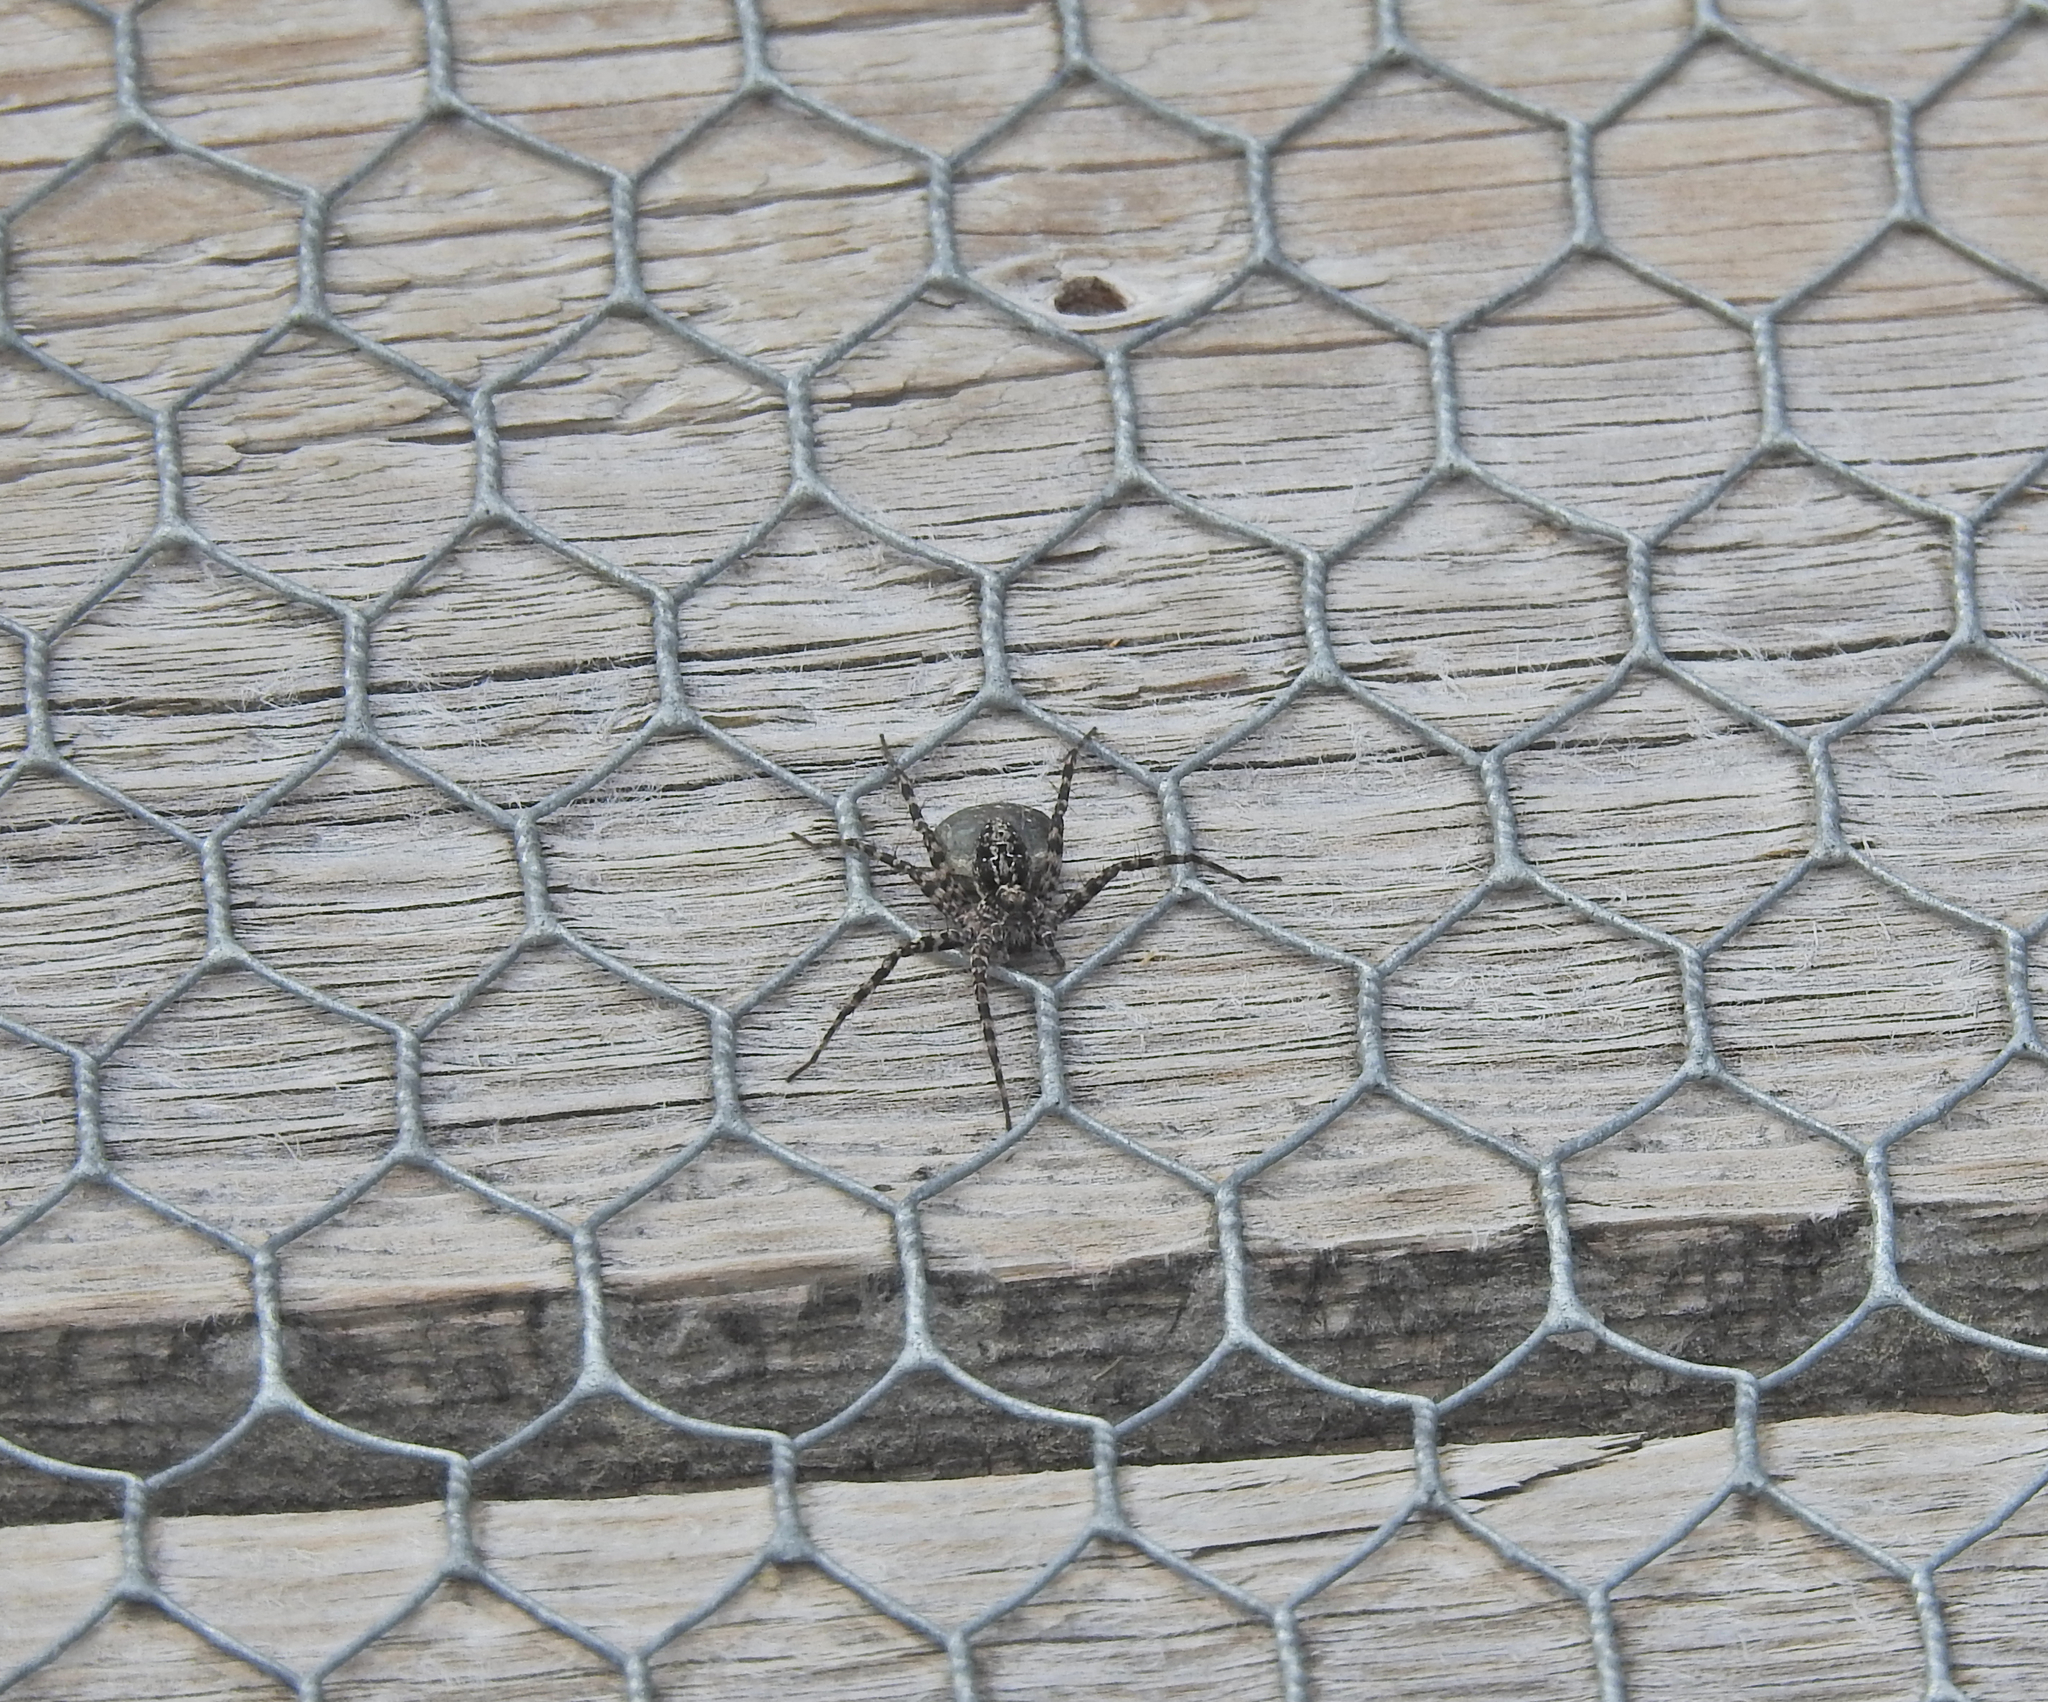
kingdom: Animalia
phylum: Arthropoda
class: Arachnida
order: Araneae
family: Lycosidae
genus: Acantholycosa
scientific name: Acantholycosa lignaria
